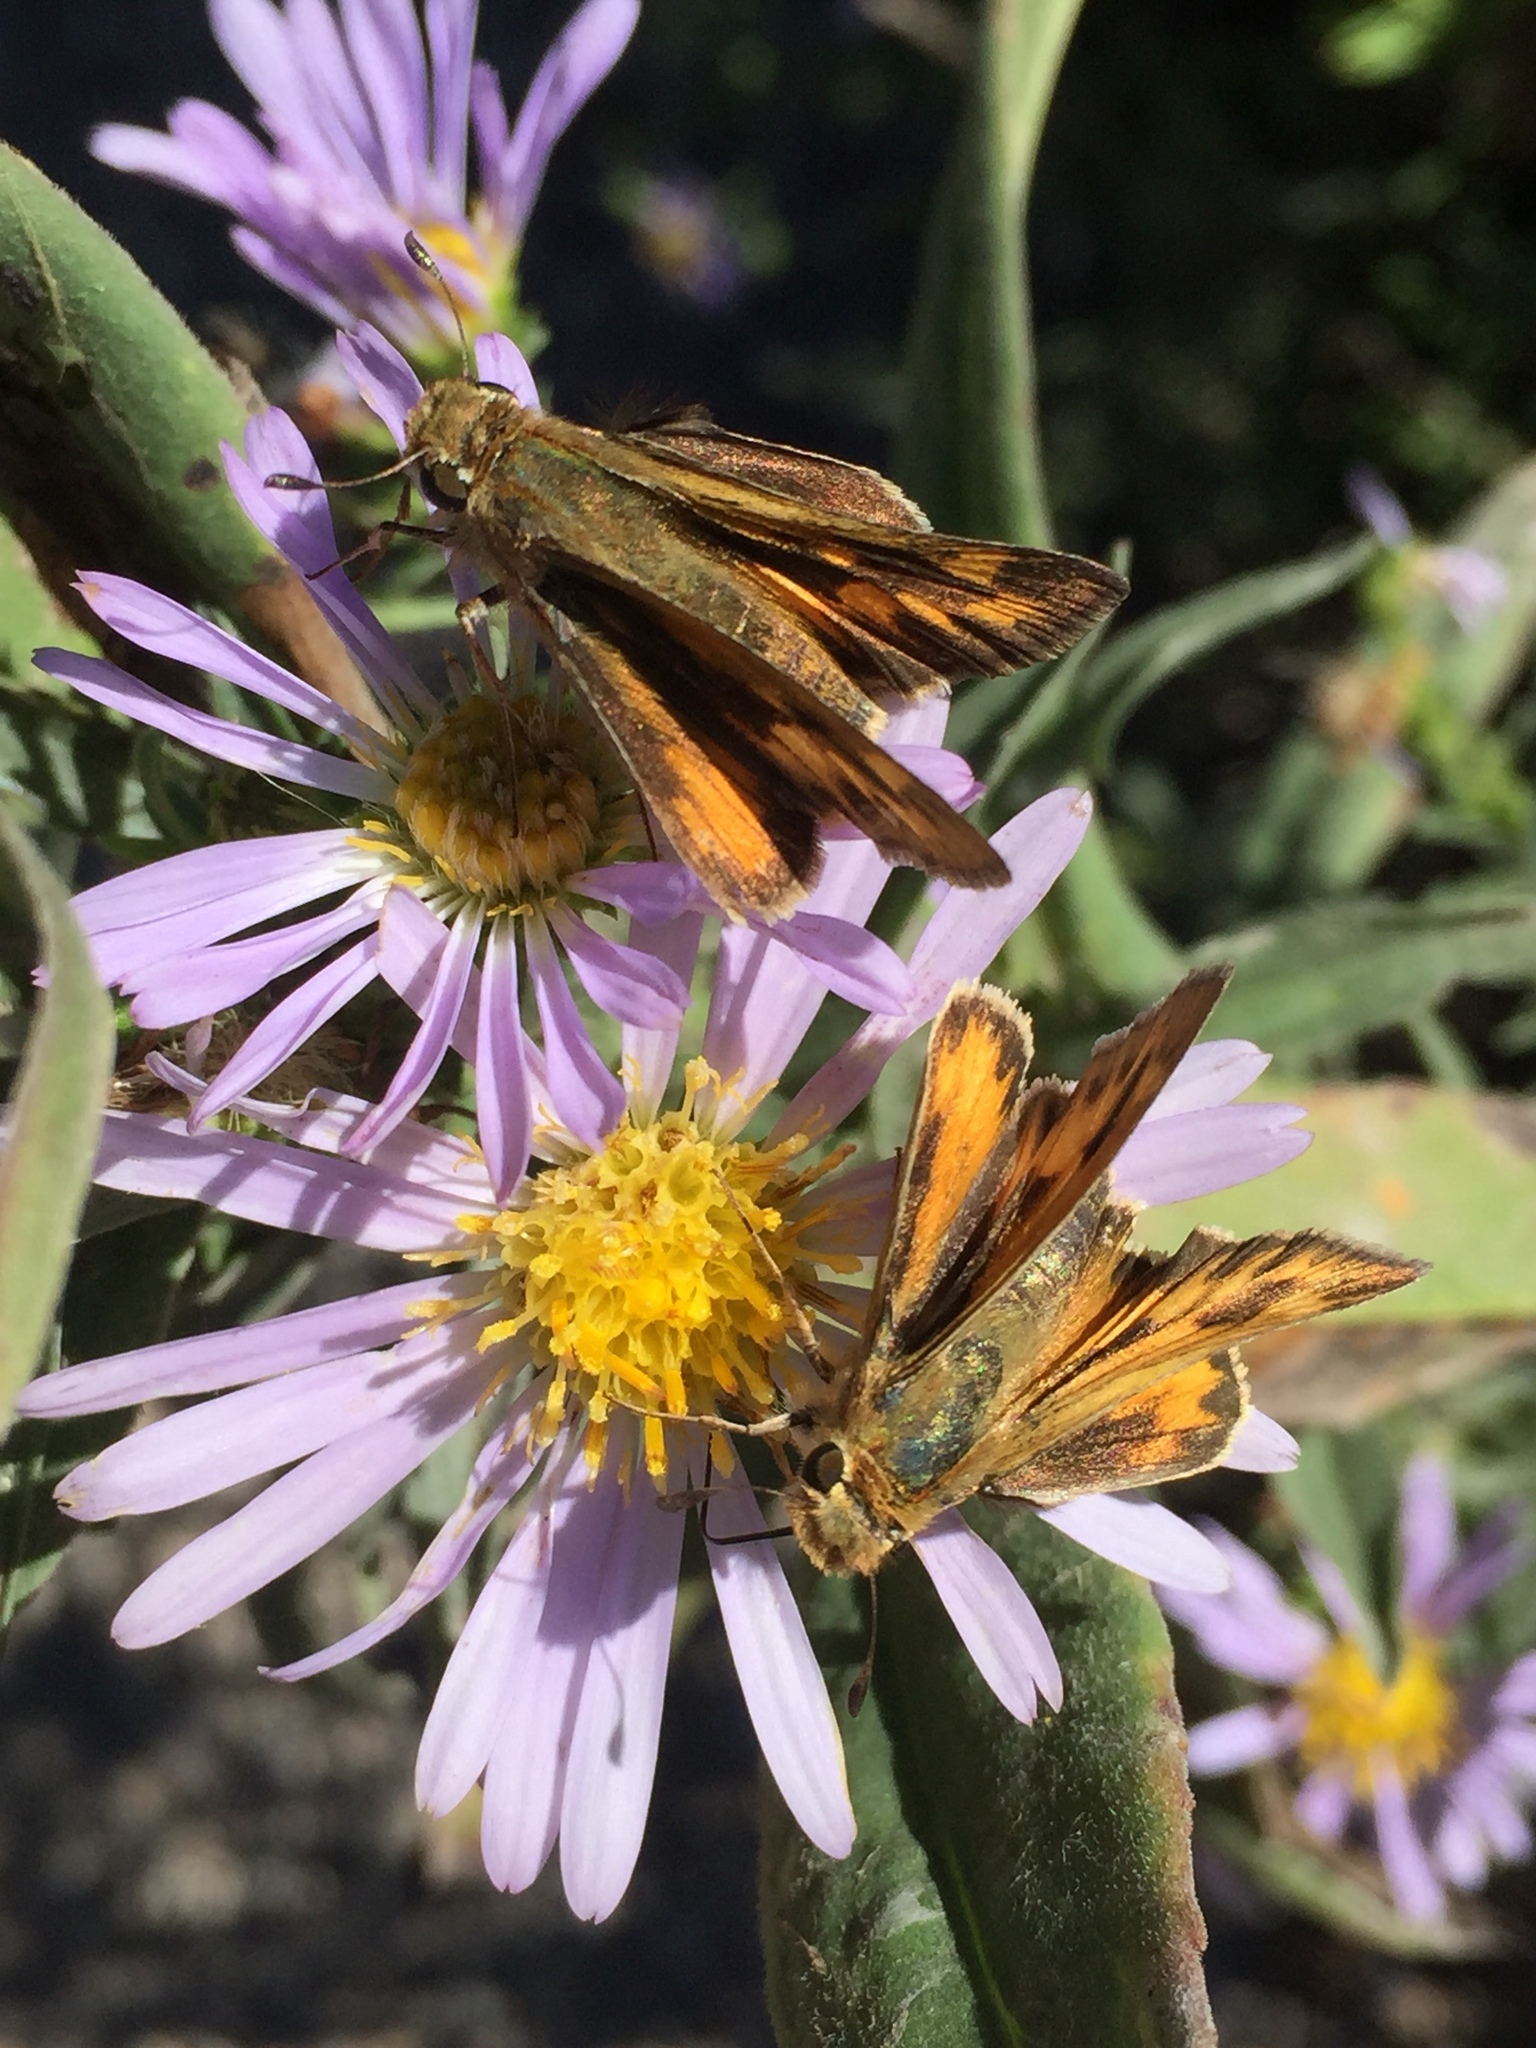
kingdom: Animalia
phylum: Arthropoda
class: Insecta
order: Lepidoptera
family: Hesperiidae
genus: Hylephila
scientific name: Hylephila phyleus
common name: Fiery skipper
